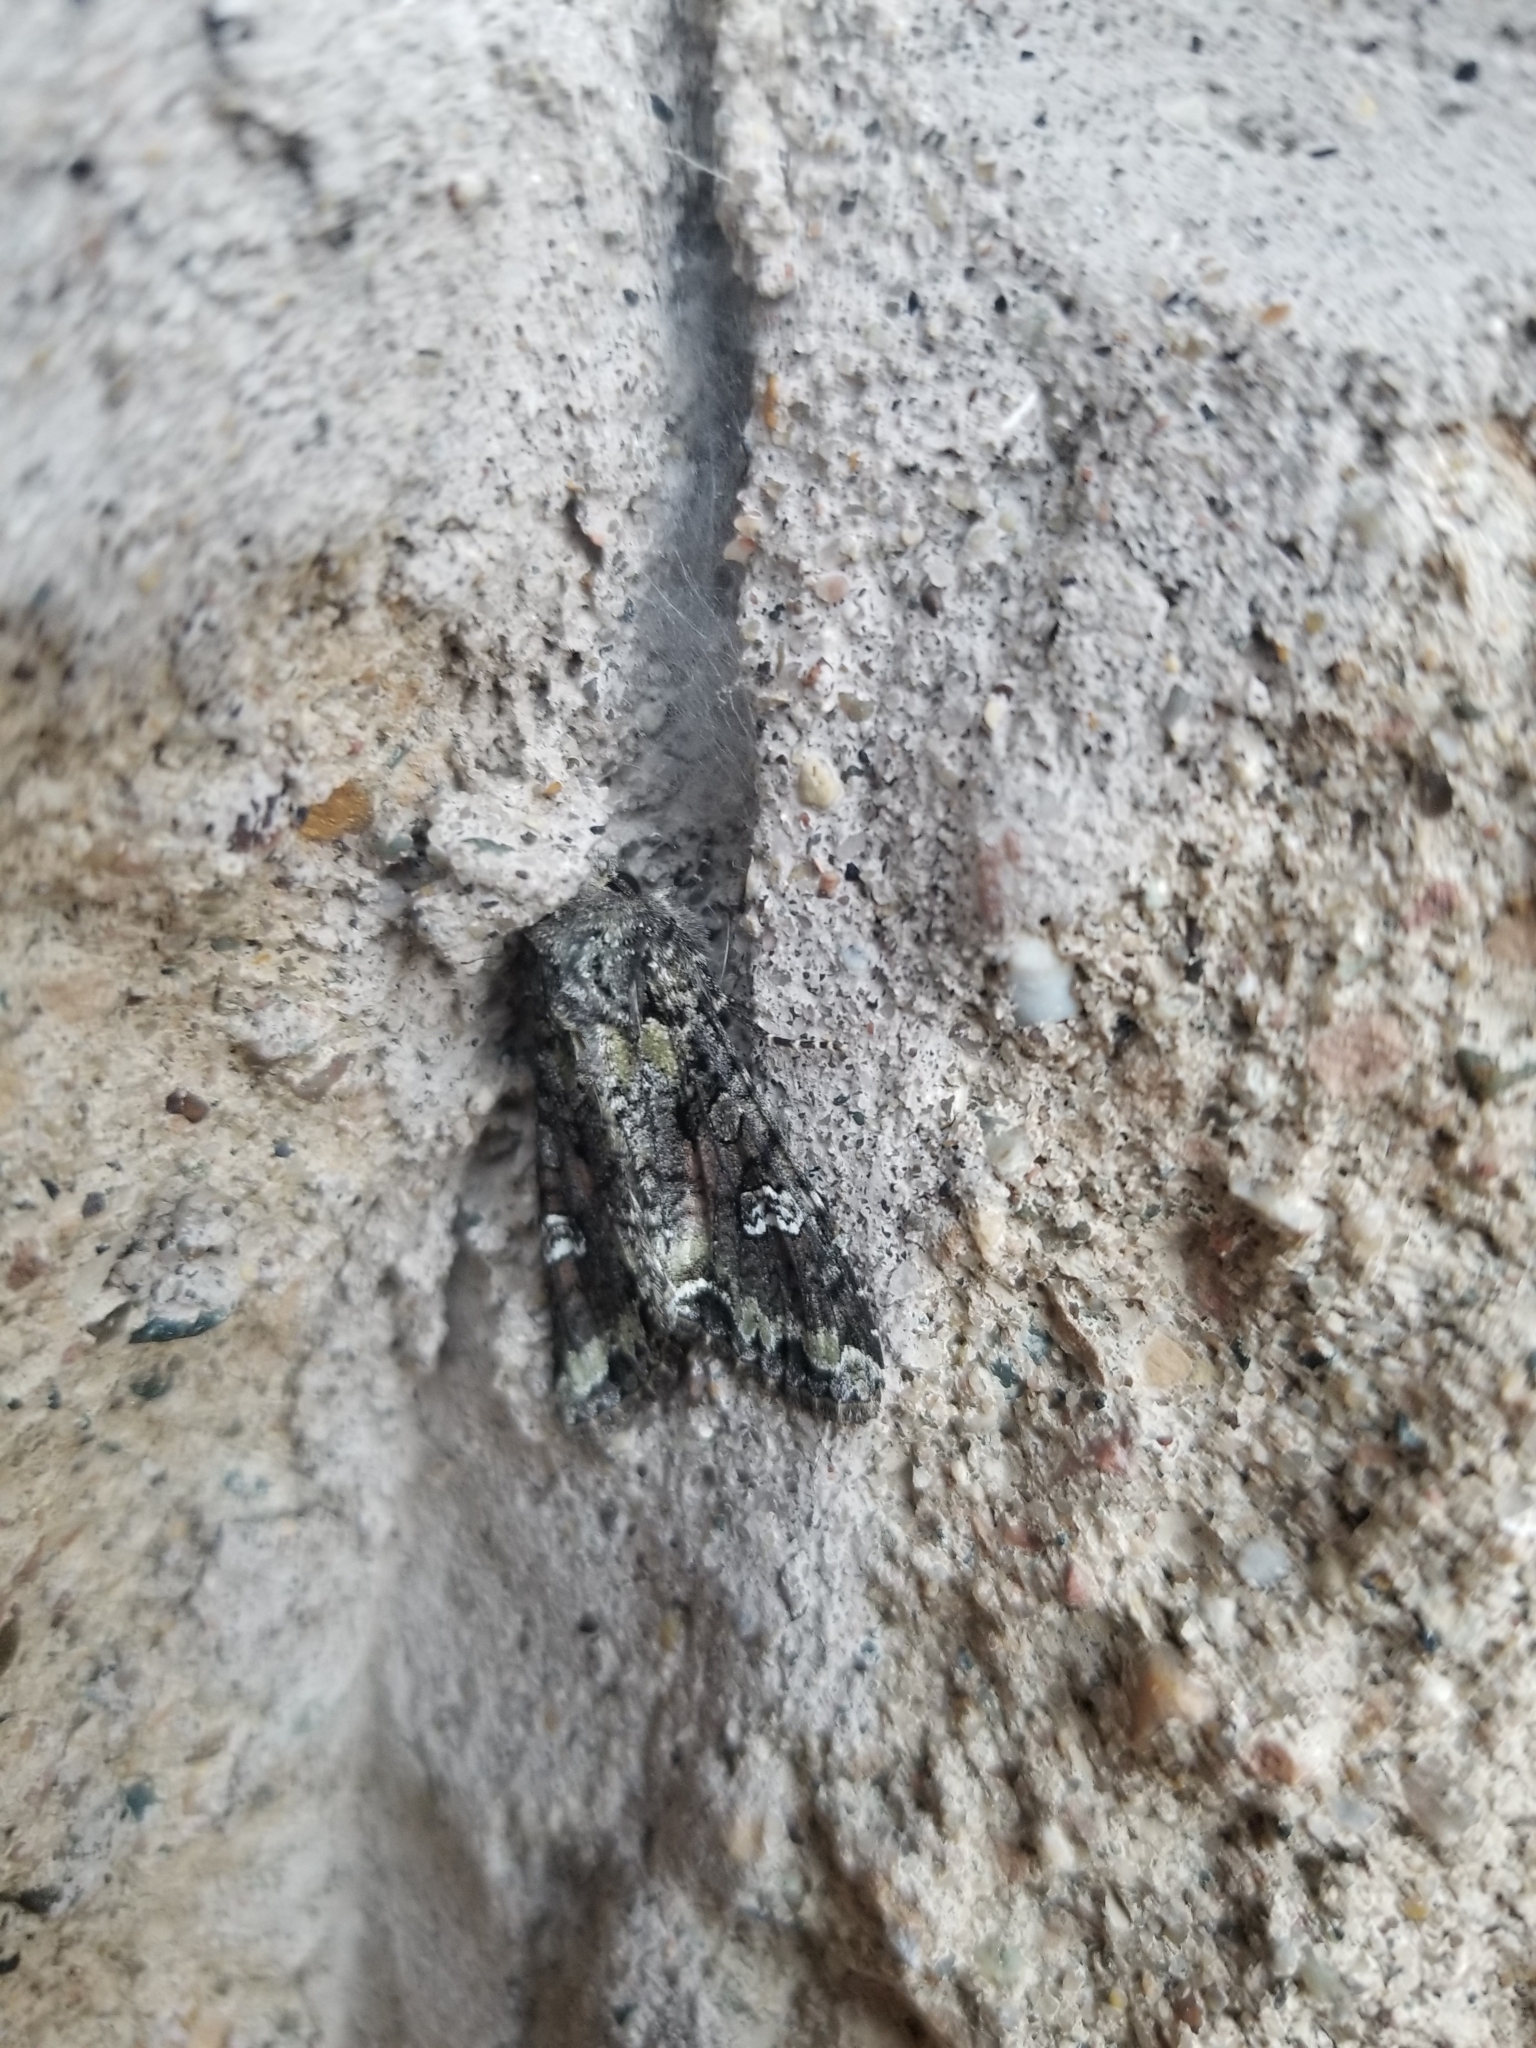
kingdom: Animalia
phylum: Arthropoda
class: Insecta
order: Lepidoptera
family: Noctuidae
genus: Mamestra
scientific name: Mamestra configurata
